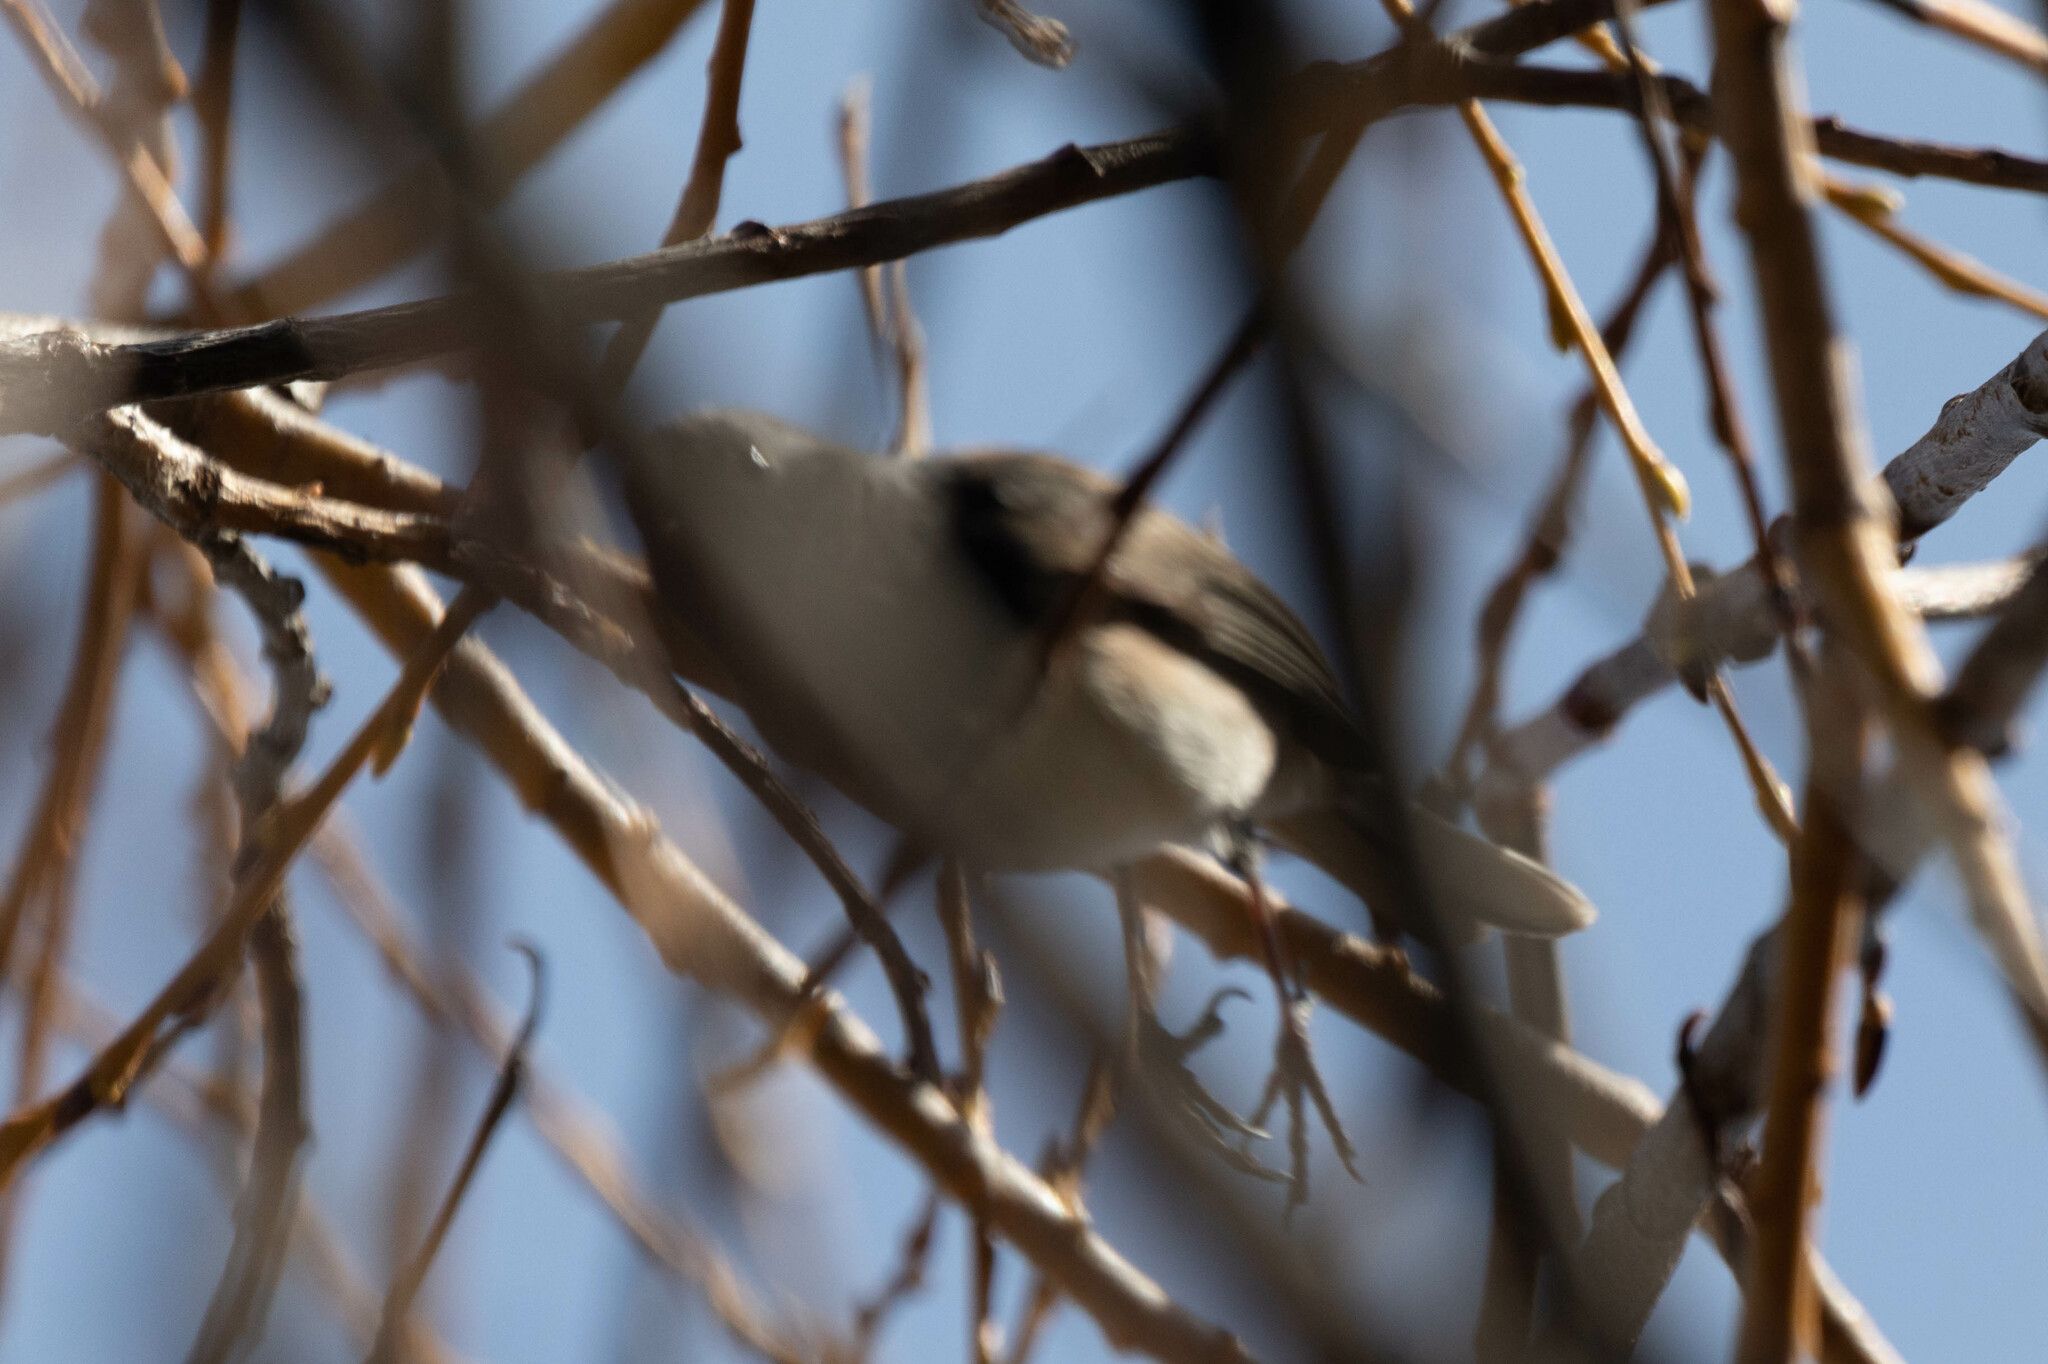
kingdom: Animalia
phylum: Chordata
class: Aves
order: Passeriformes
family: Passerellidae
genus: Junco
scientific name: Junco hyemalis
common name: Dark-eyed junco
